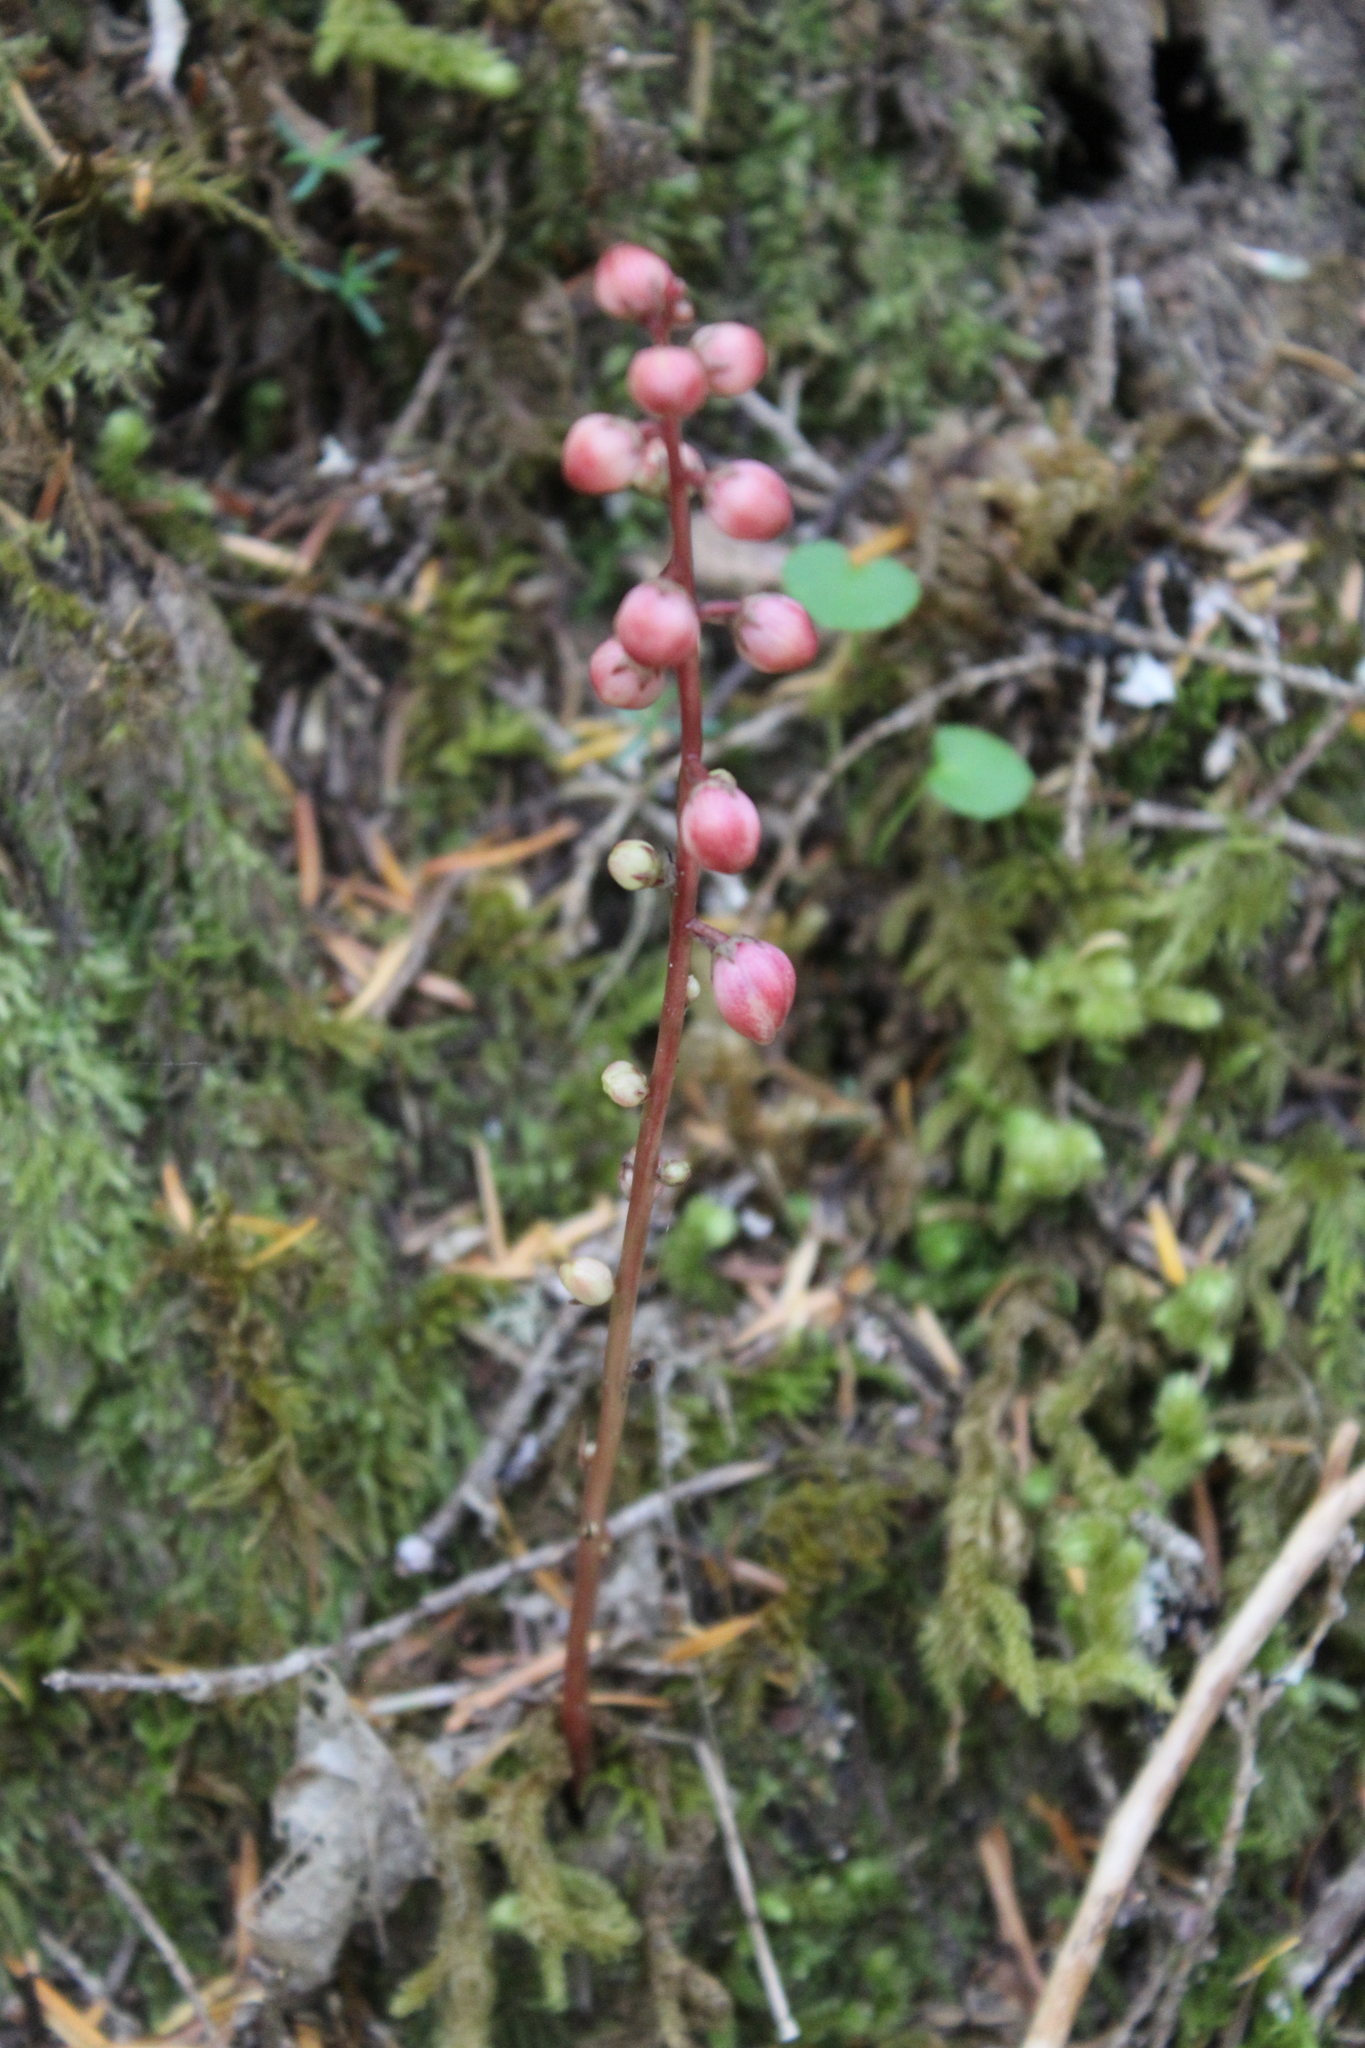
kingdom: Plantae
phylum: Tracheophyta
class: Magnoliopsida
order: Ericales
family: Ericaceae
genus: Pyrola
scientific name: Pyrola aphylla
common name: Leafless wintergreen
